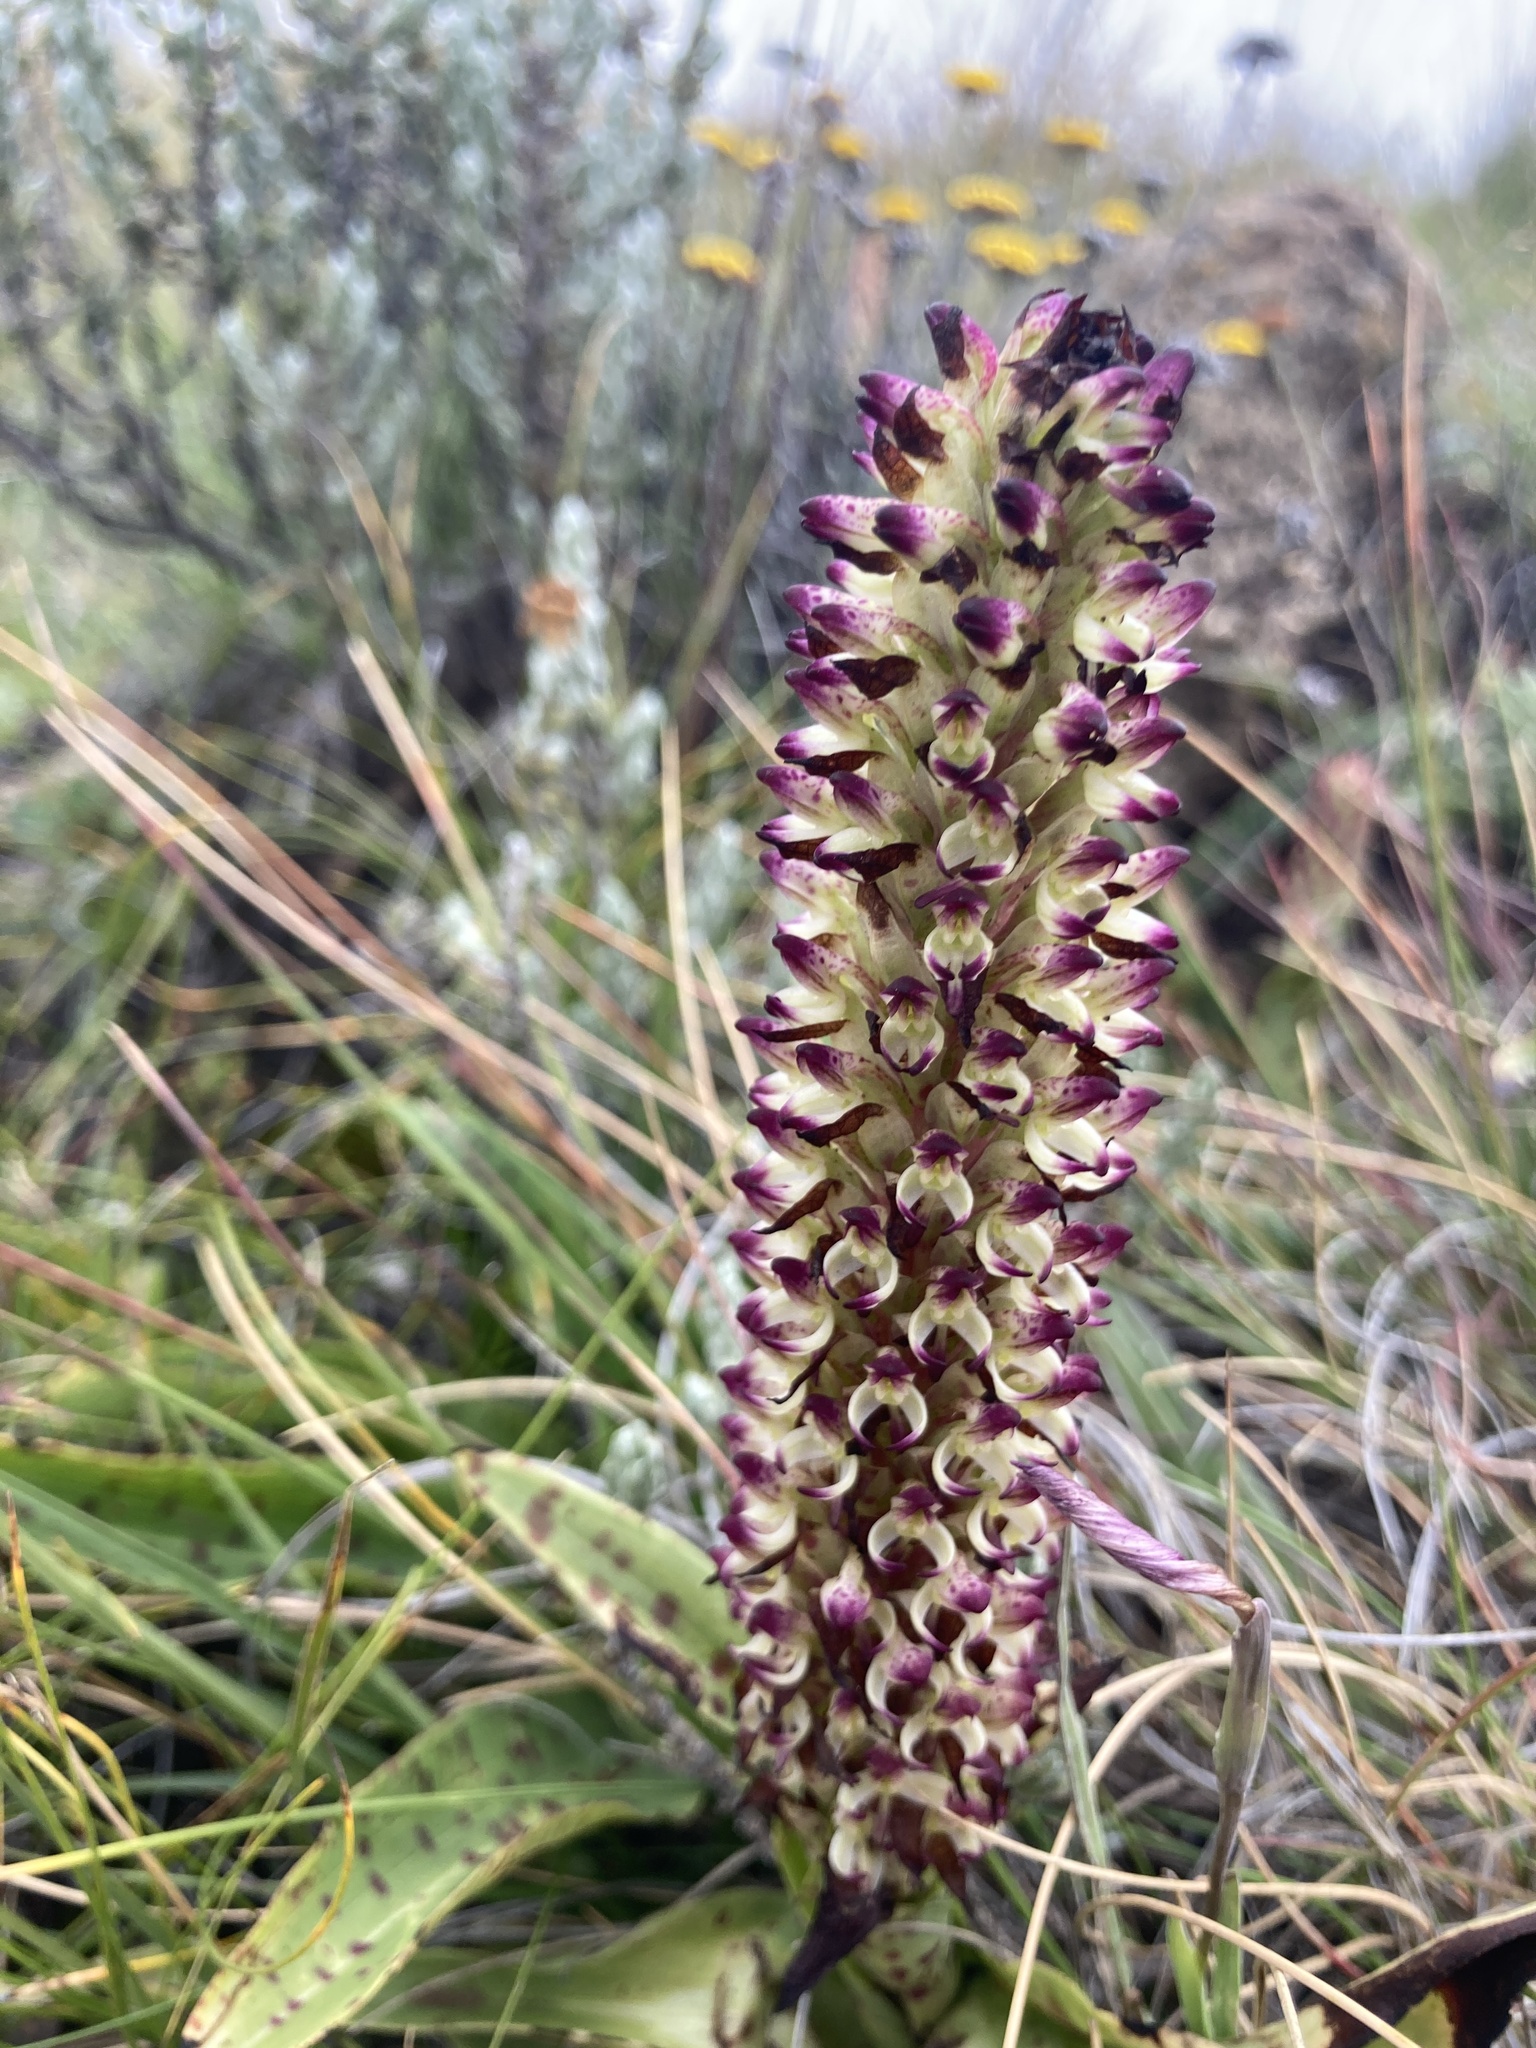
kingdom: Plantae
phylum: Tracheophyta
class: Liliopsida
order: Asparagales
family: Orchidaceae
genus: Disa
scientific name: Disa fragrans
